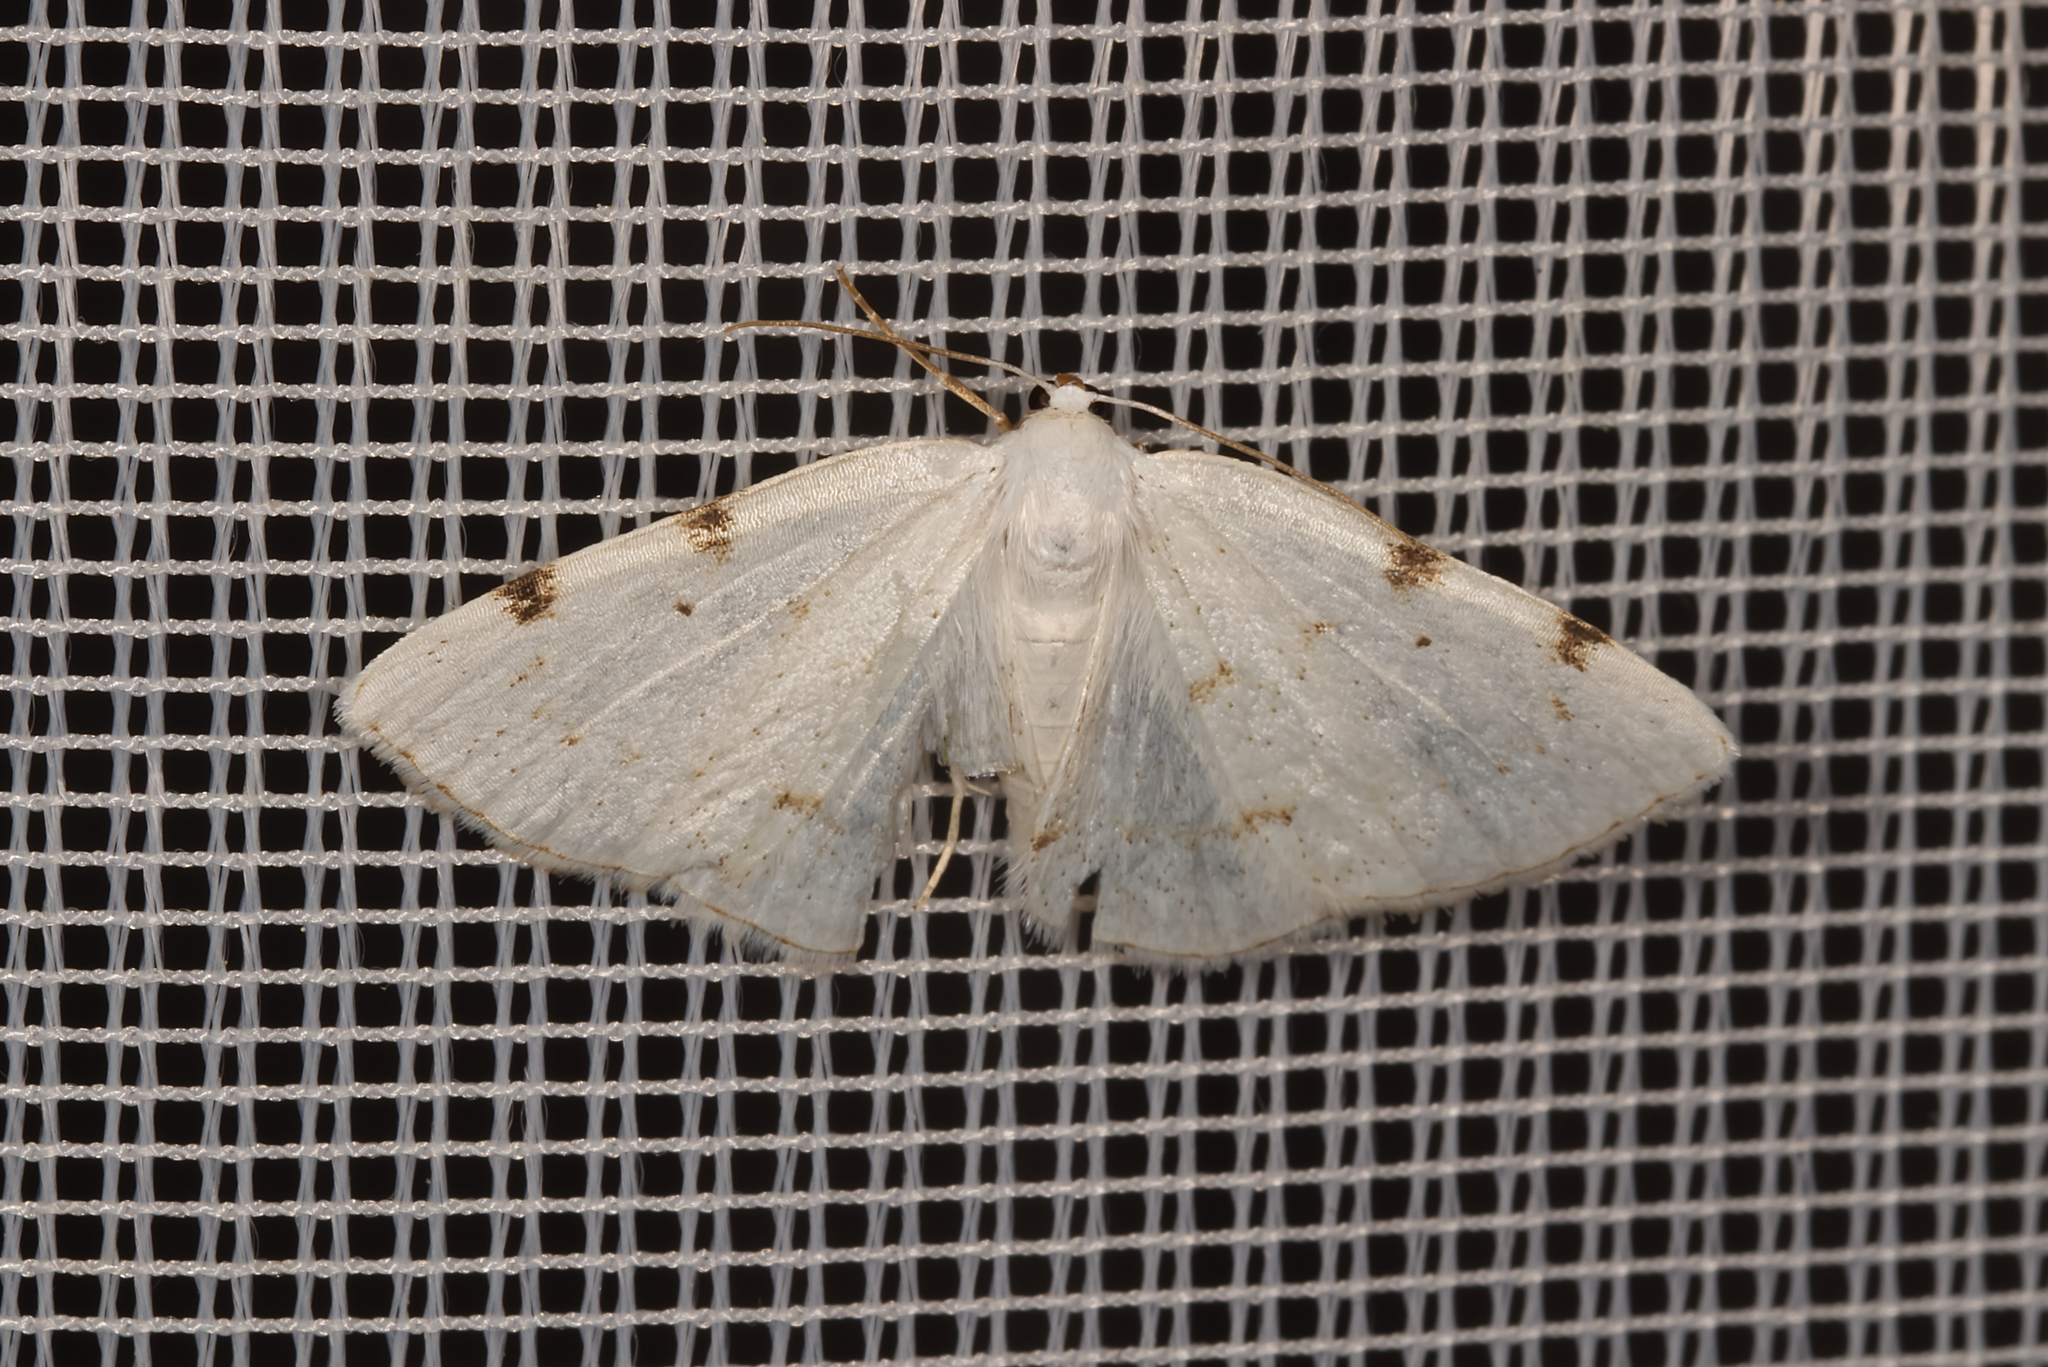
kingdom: Animalia
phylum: Arthropoda
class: Insecta
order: Lepidoptera
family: Geometridae
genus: Lomographa
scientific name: Lomographa bimaculata
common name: White-pinion spotted
